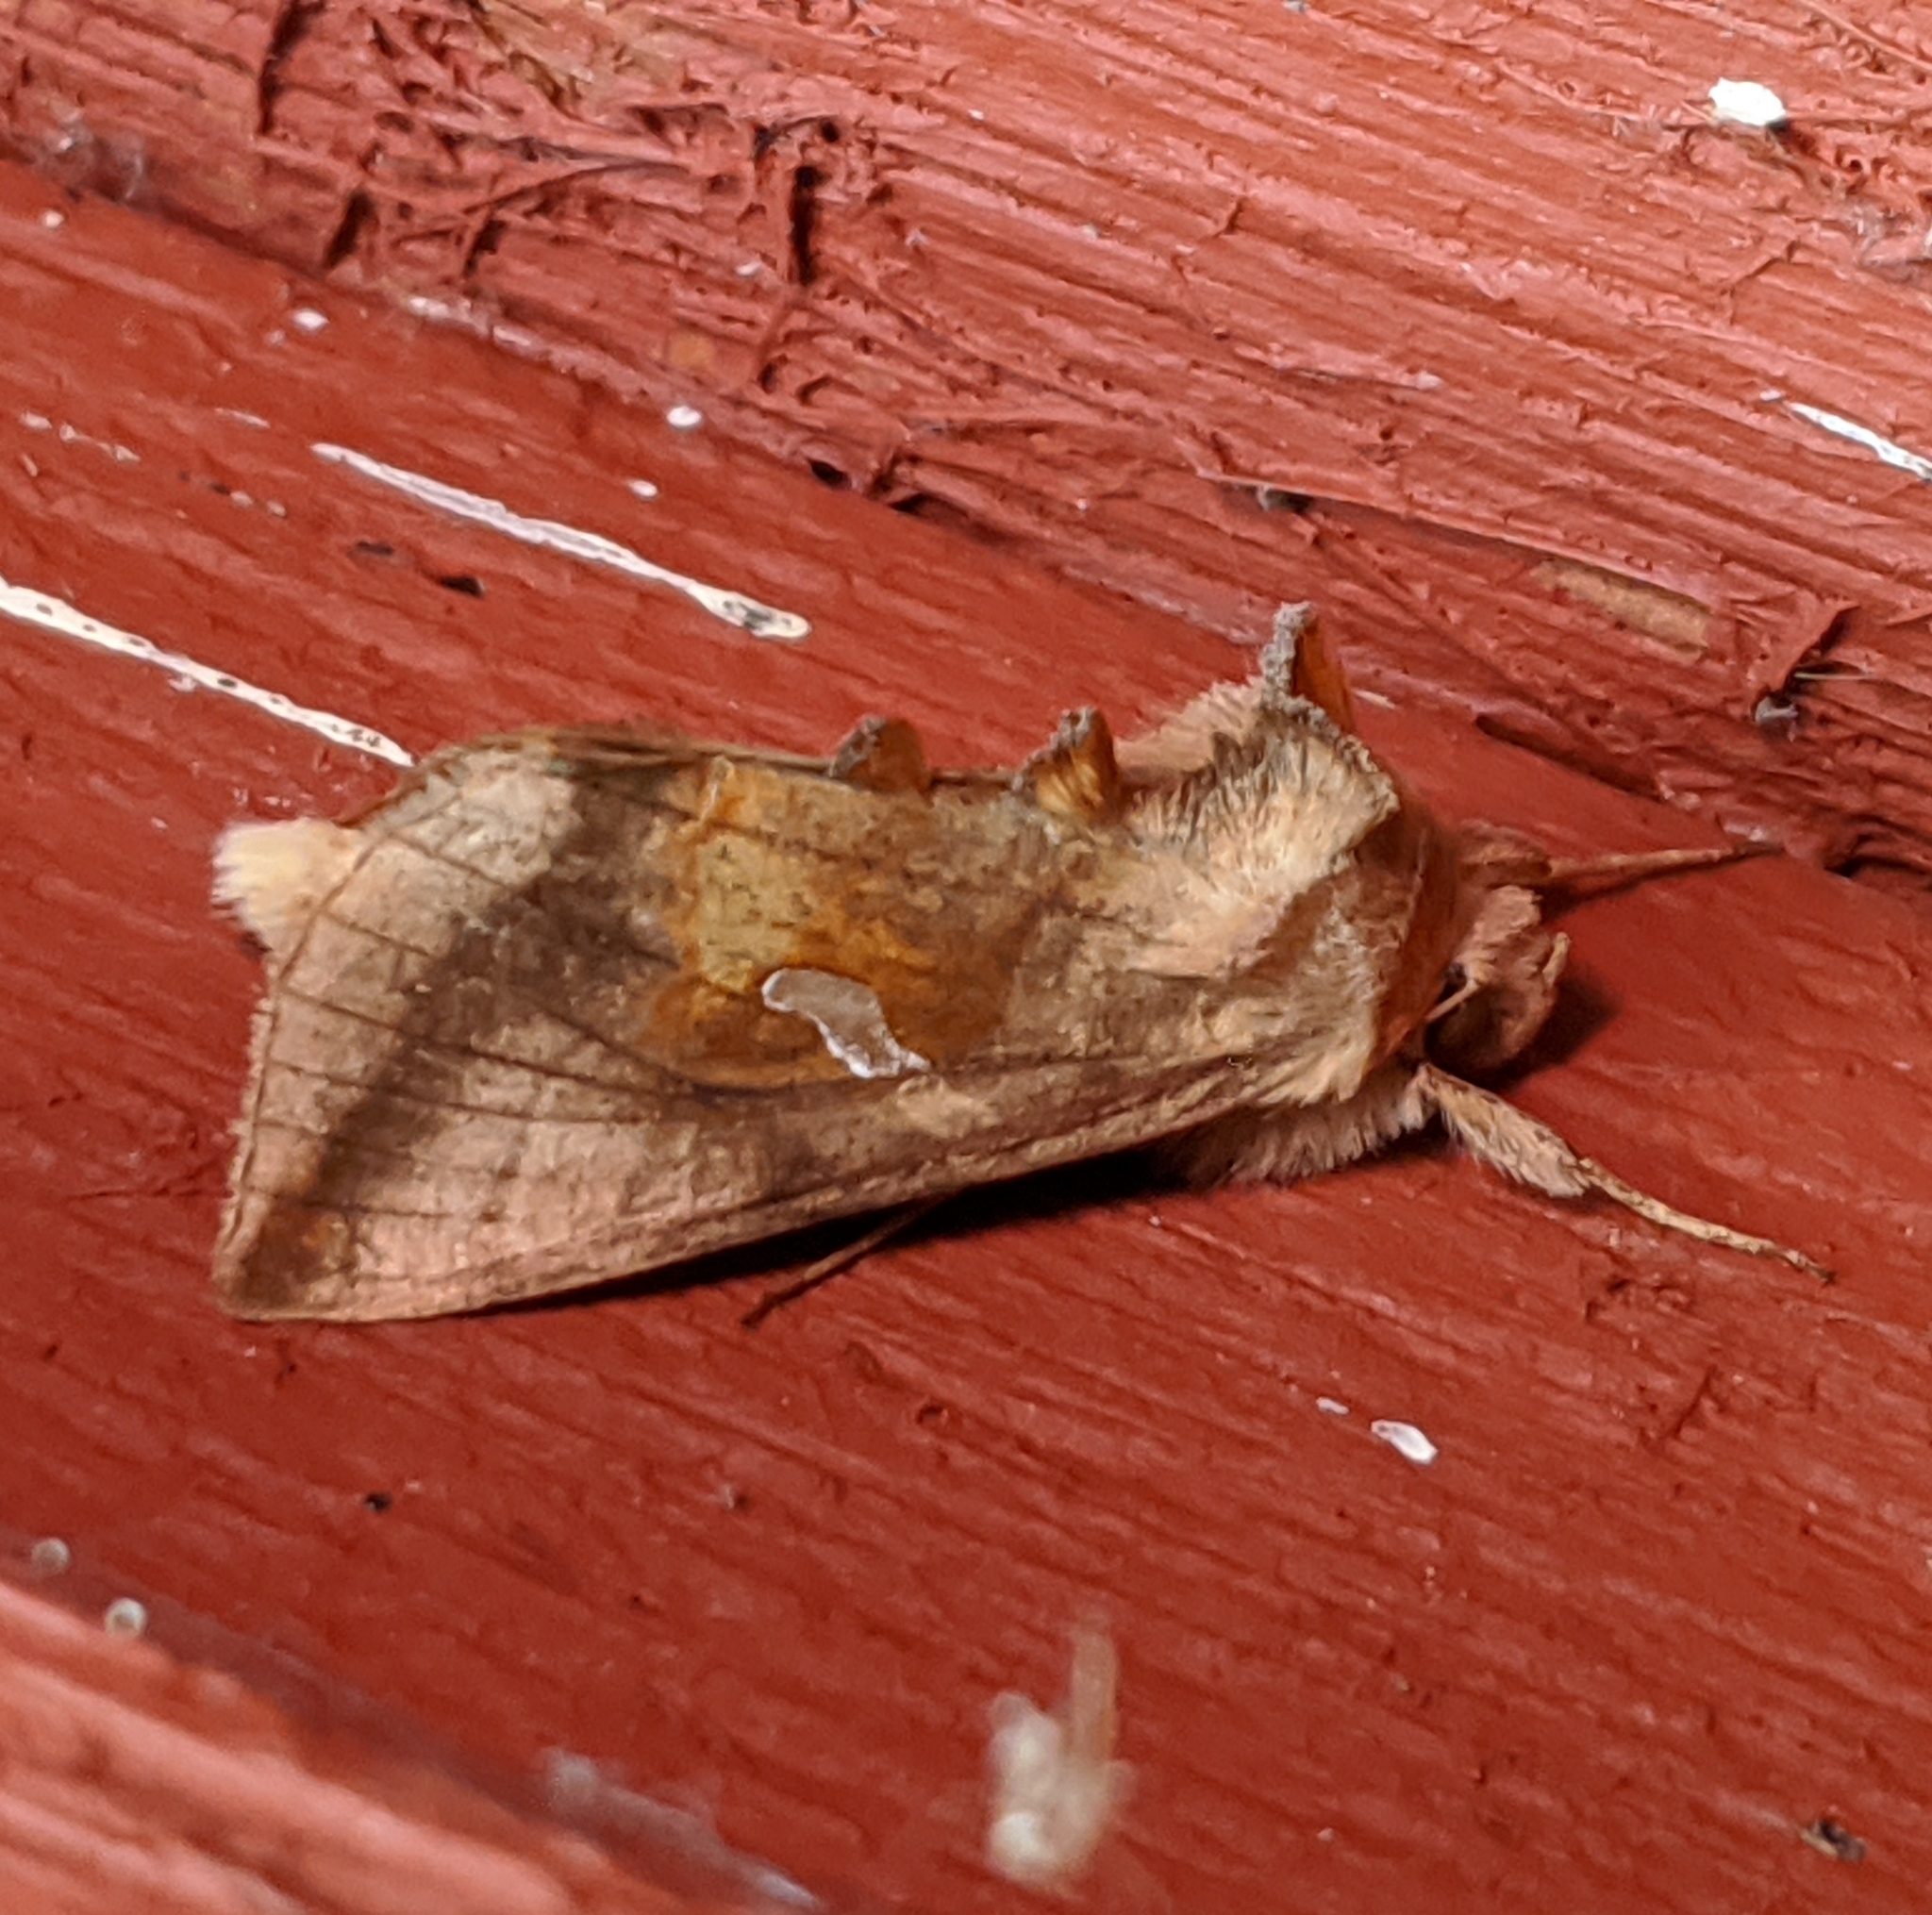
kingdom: Animalia
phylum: Arthropoda
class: Insecta
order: Lepidoptera
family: Noctuidae
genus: Autographa
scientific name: Autographa metallica
